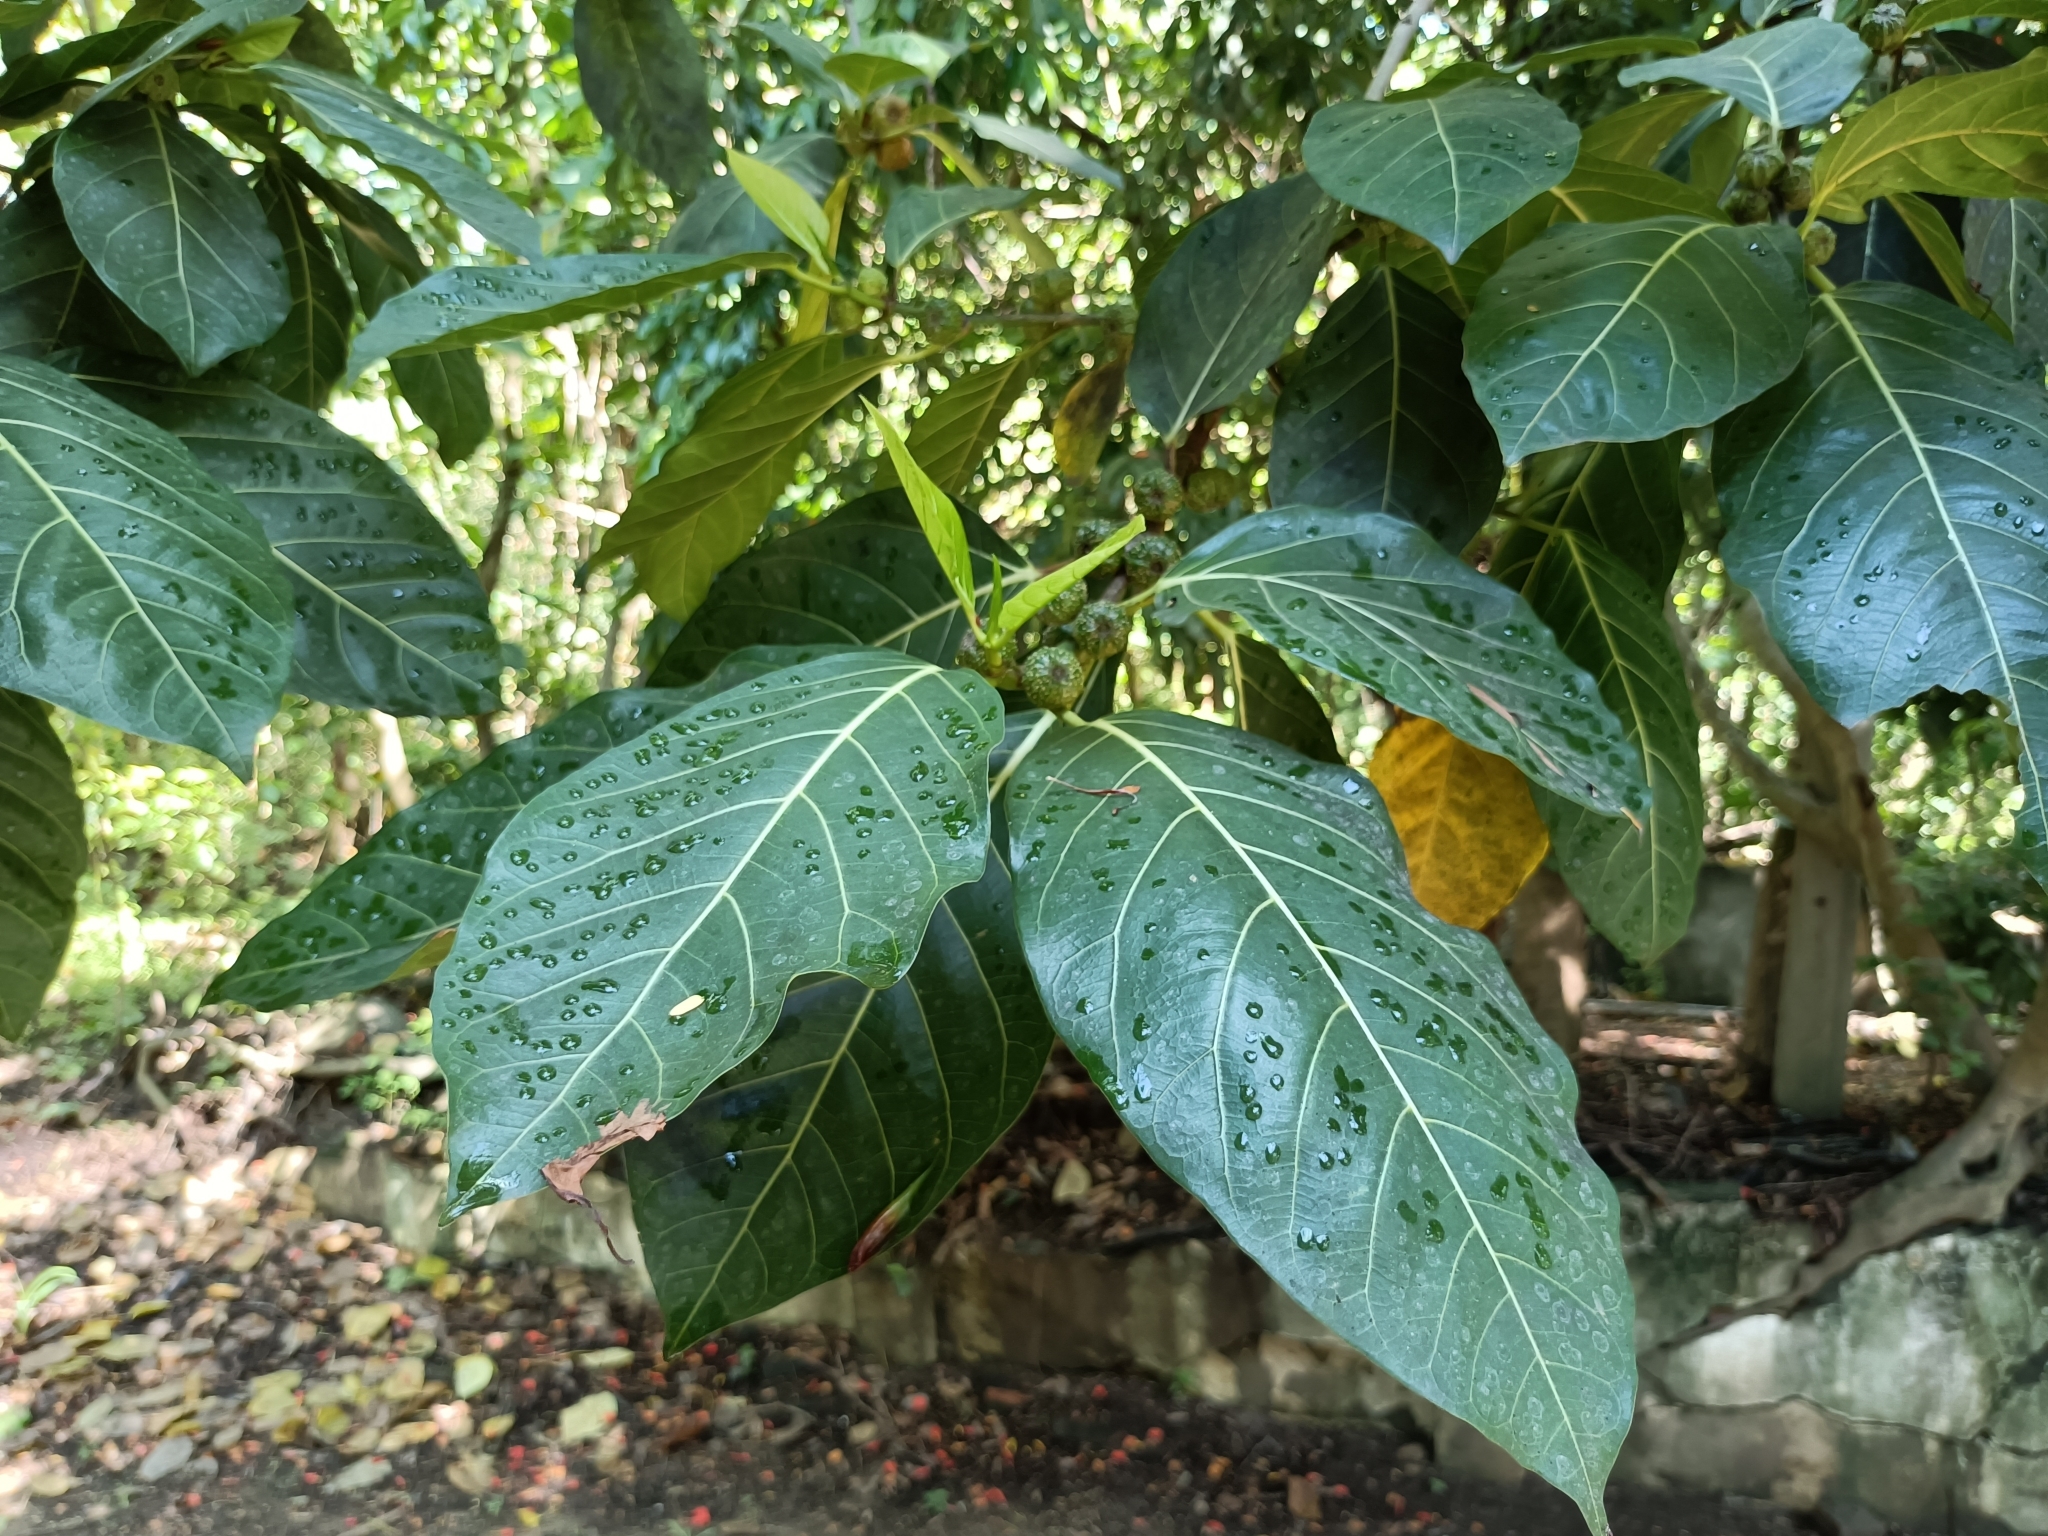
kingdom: Plantae
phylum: Tracheophyta
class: Magnoliopsida
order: Rosales
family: Moraceae
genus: Ficus
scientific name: Ficus septica
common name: Septic fig
